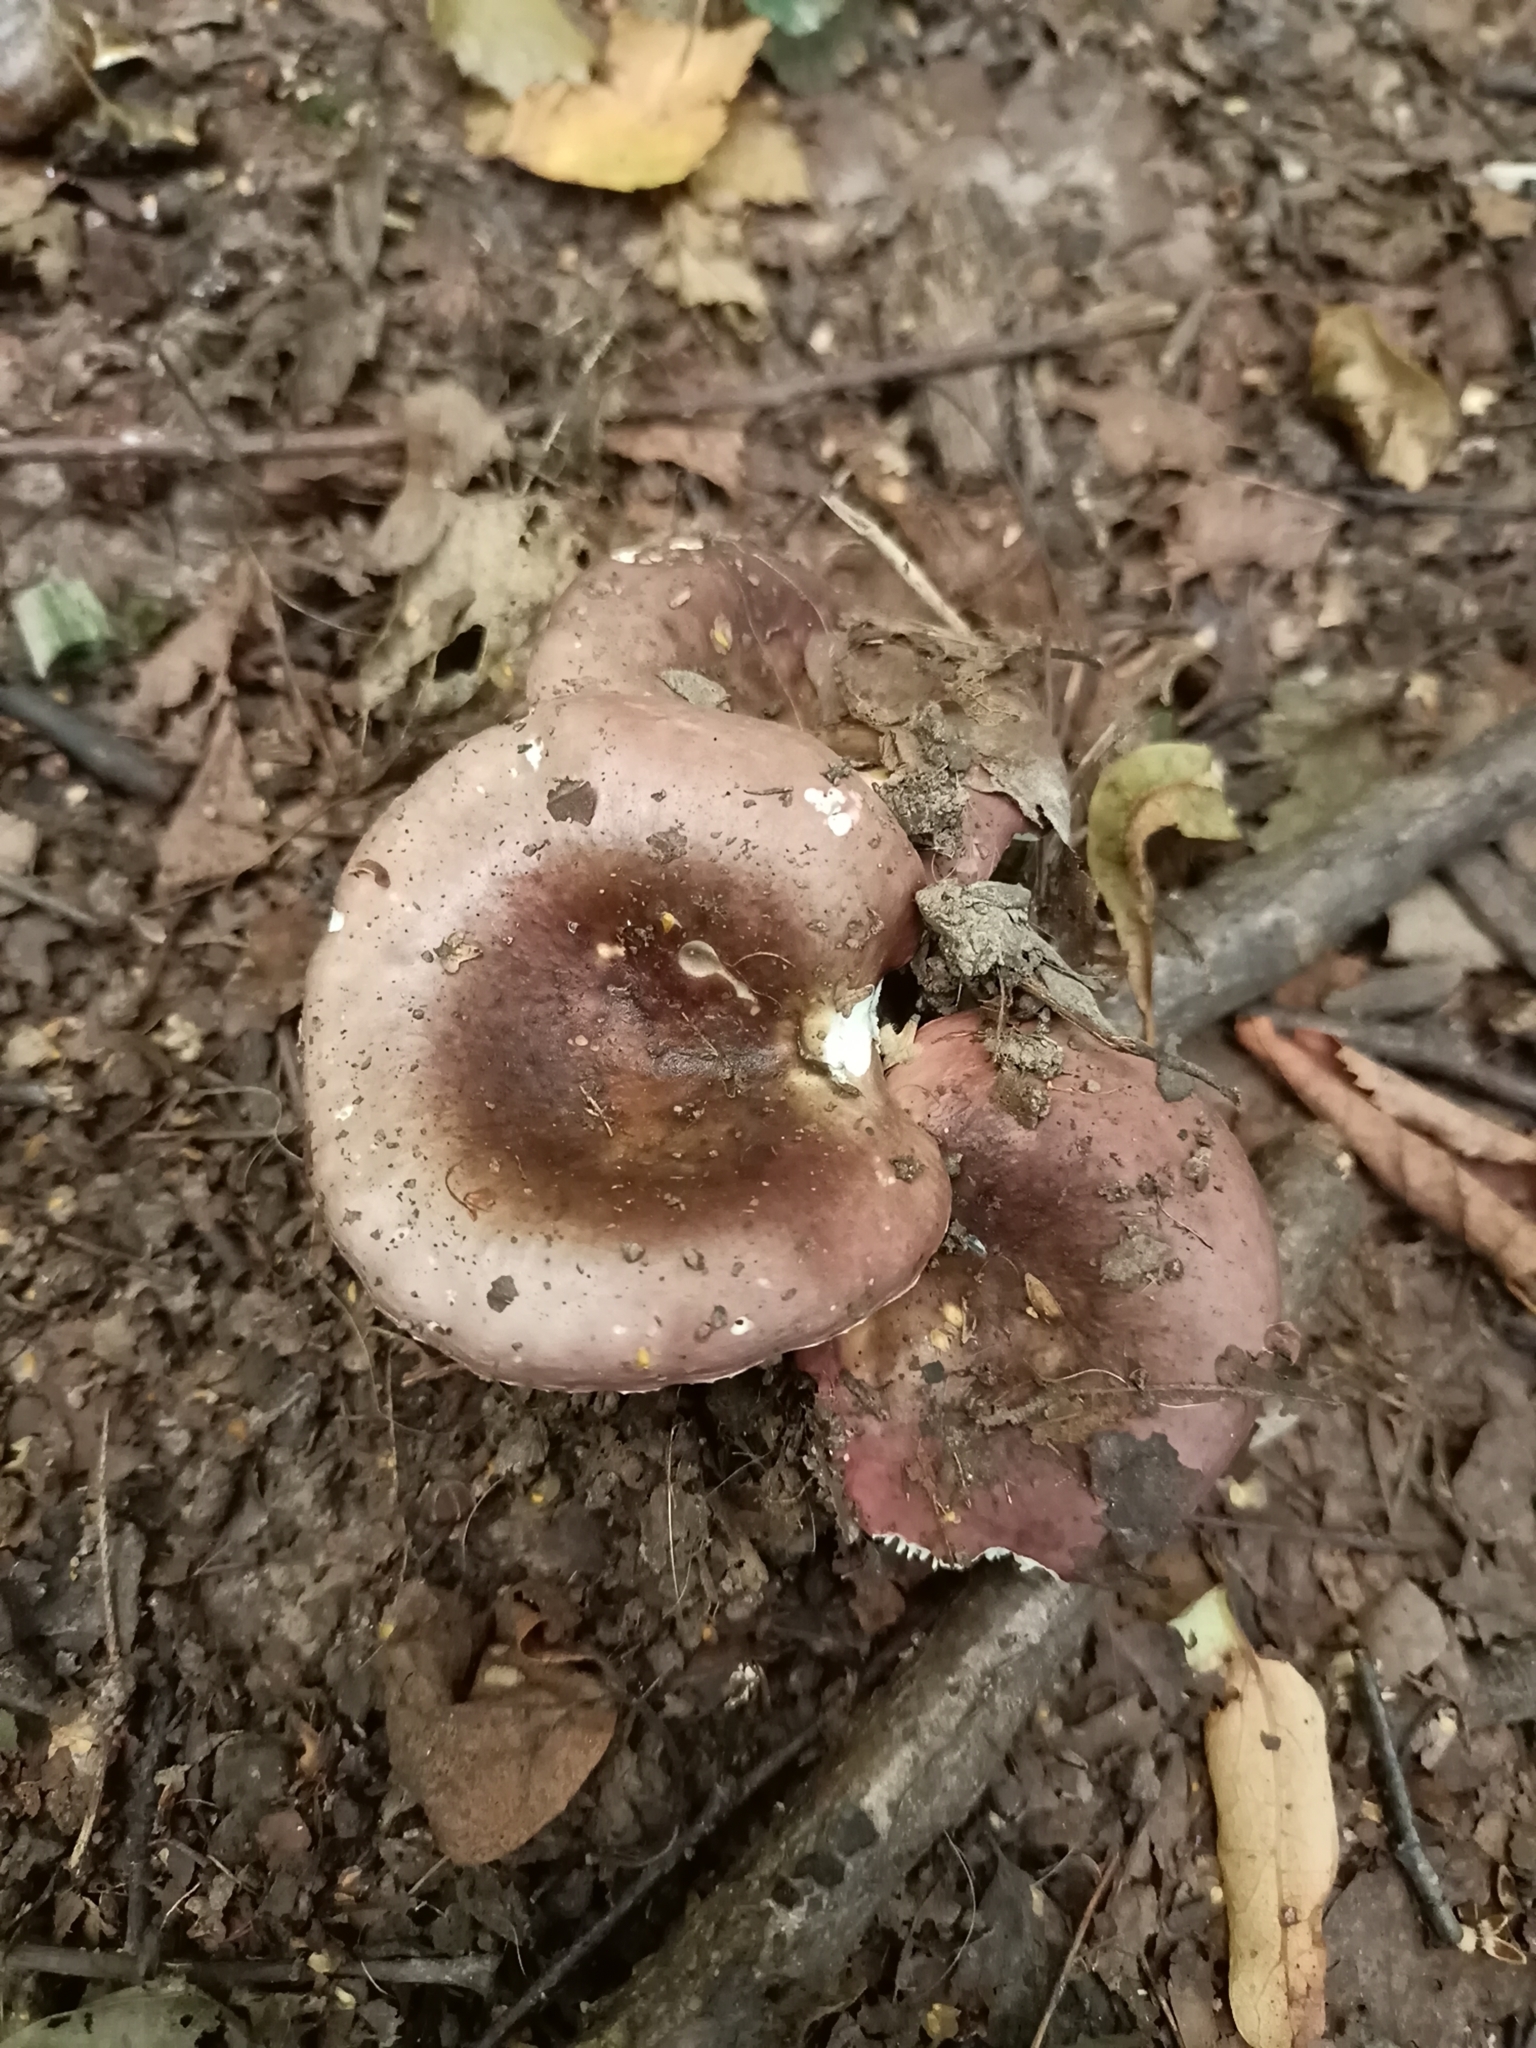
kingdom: Fungi
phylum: Basidiomycota
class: Agaricomycetes
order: Russulales
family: Russulaceae
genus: Russula
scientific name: Russula cyanoxantha
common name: Charcoal burner
